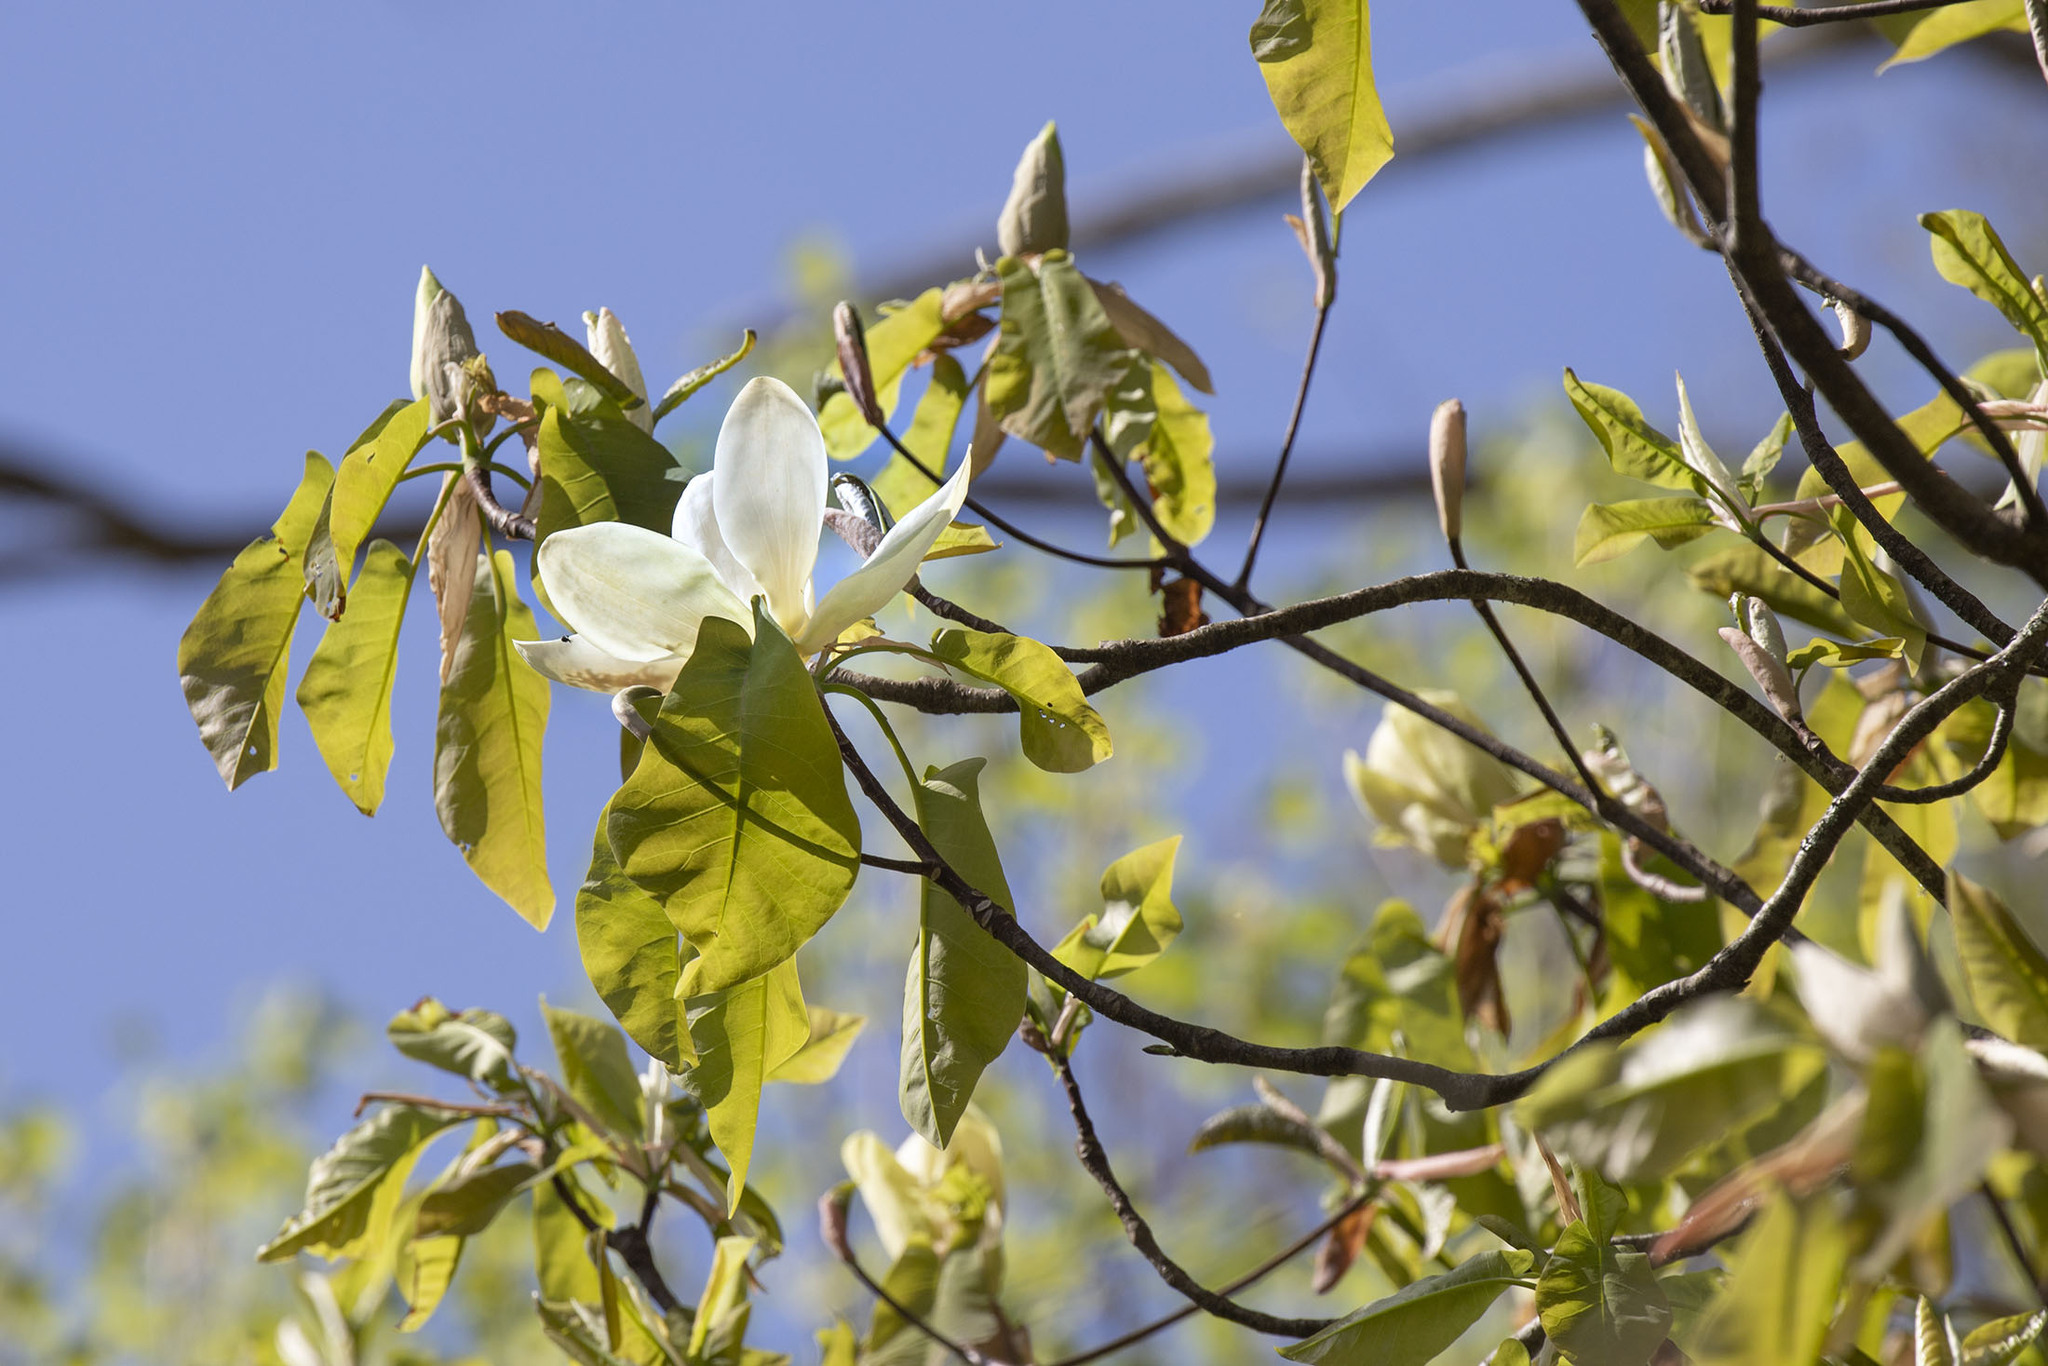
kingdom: Plantae
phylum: Tracheophyta
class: Magnoliopsida
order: Magnoliales
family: Magnoliaceae
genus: Magnolia
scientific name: Magnolia fraseri
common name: Fraser's magnolia
